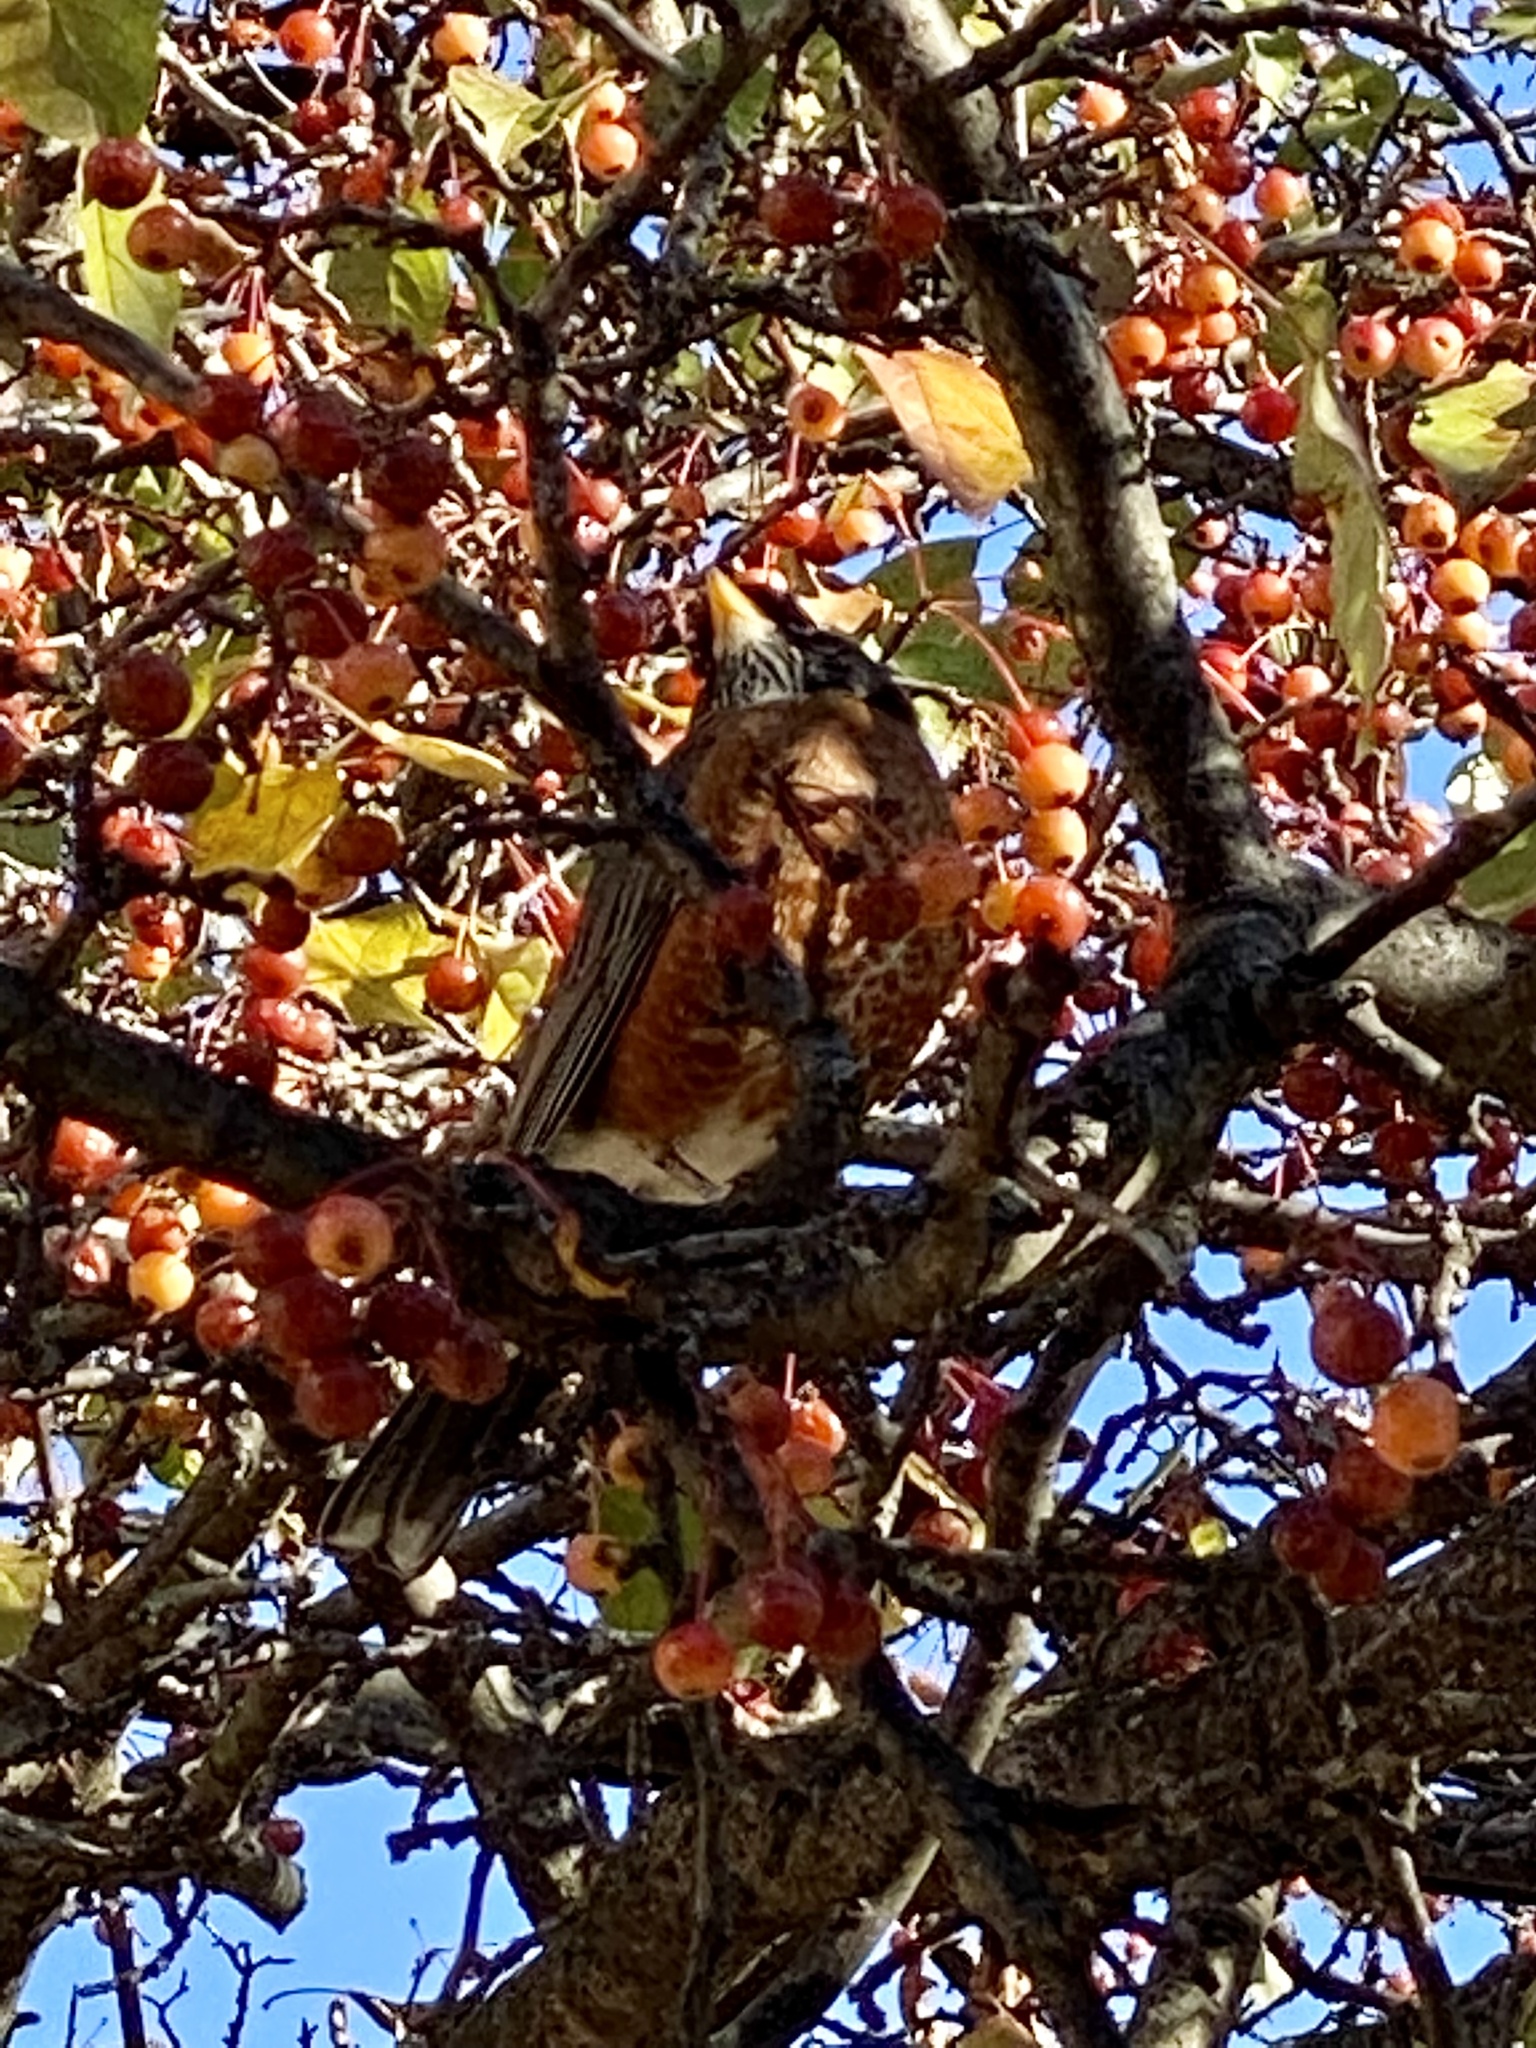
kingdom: Animalia
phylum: Chordata
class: Aves
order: Passeriformes
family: Turdidae
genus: Turdus
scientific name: Turdus migratorius
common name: American robin
